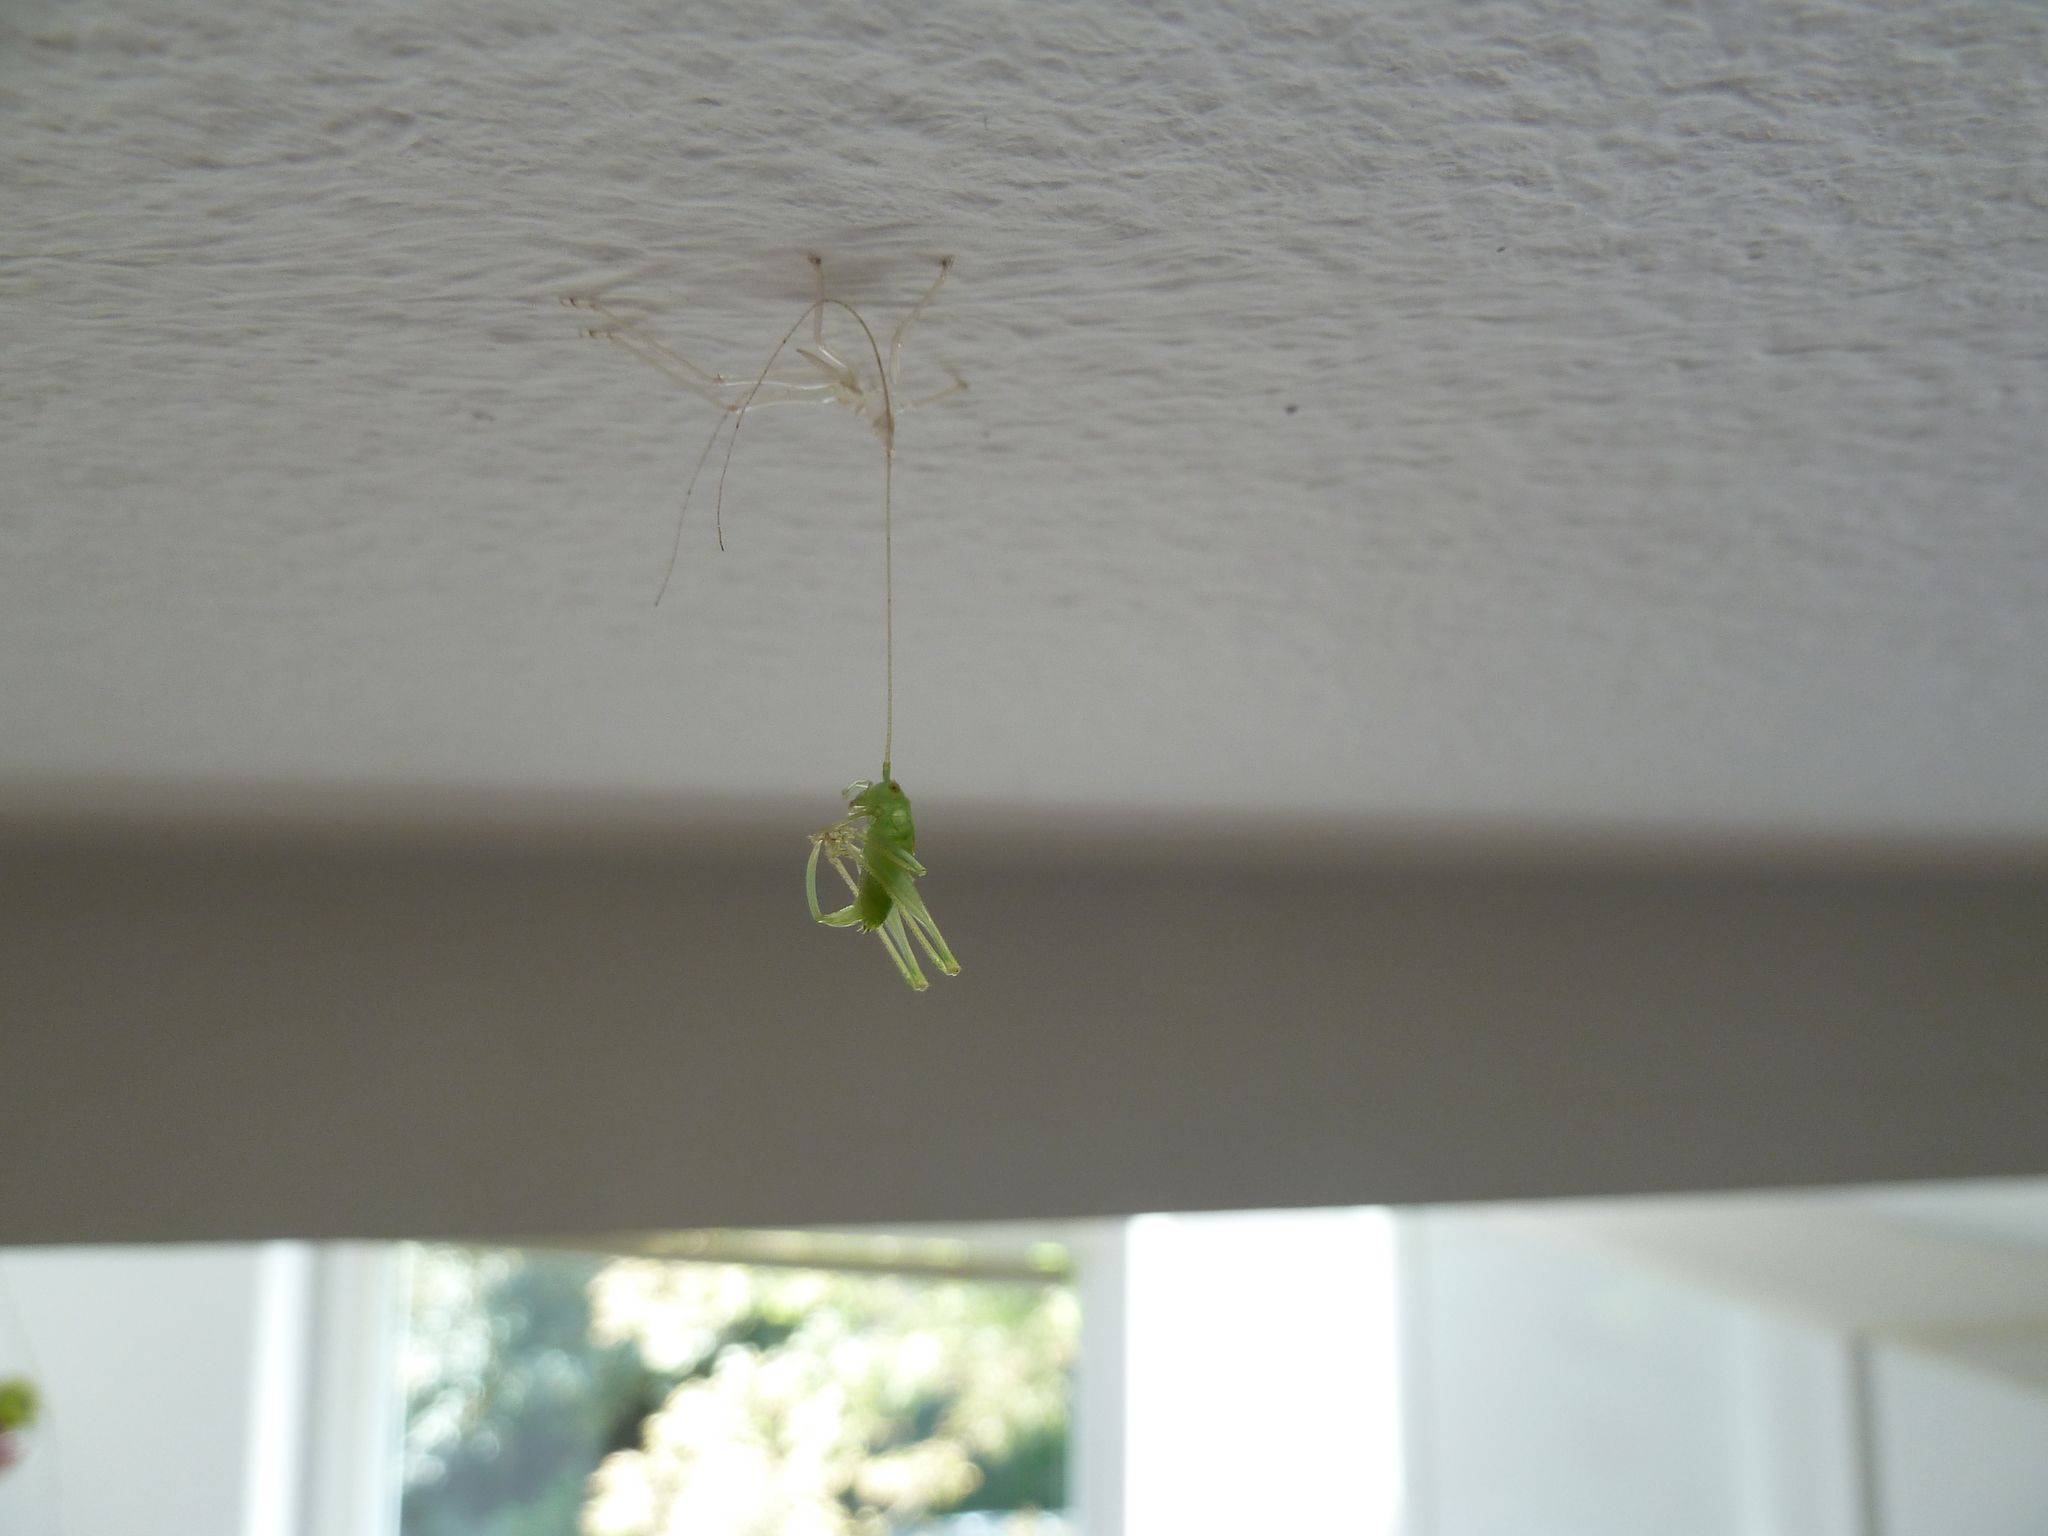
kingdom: Animalia
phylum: Arthropoda
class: Insecta
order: Orthoptera
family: Tettigoniidae
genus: Meconema
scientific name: Meconema meridionale
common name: Southern oak bush-cricket
